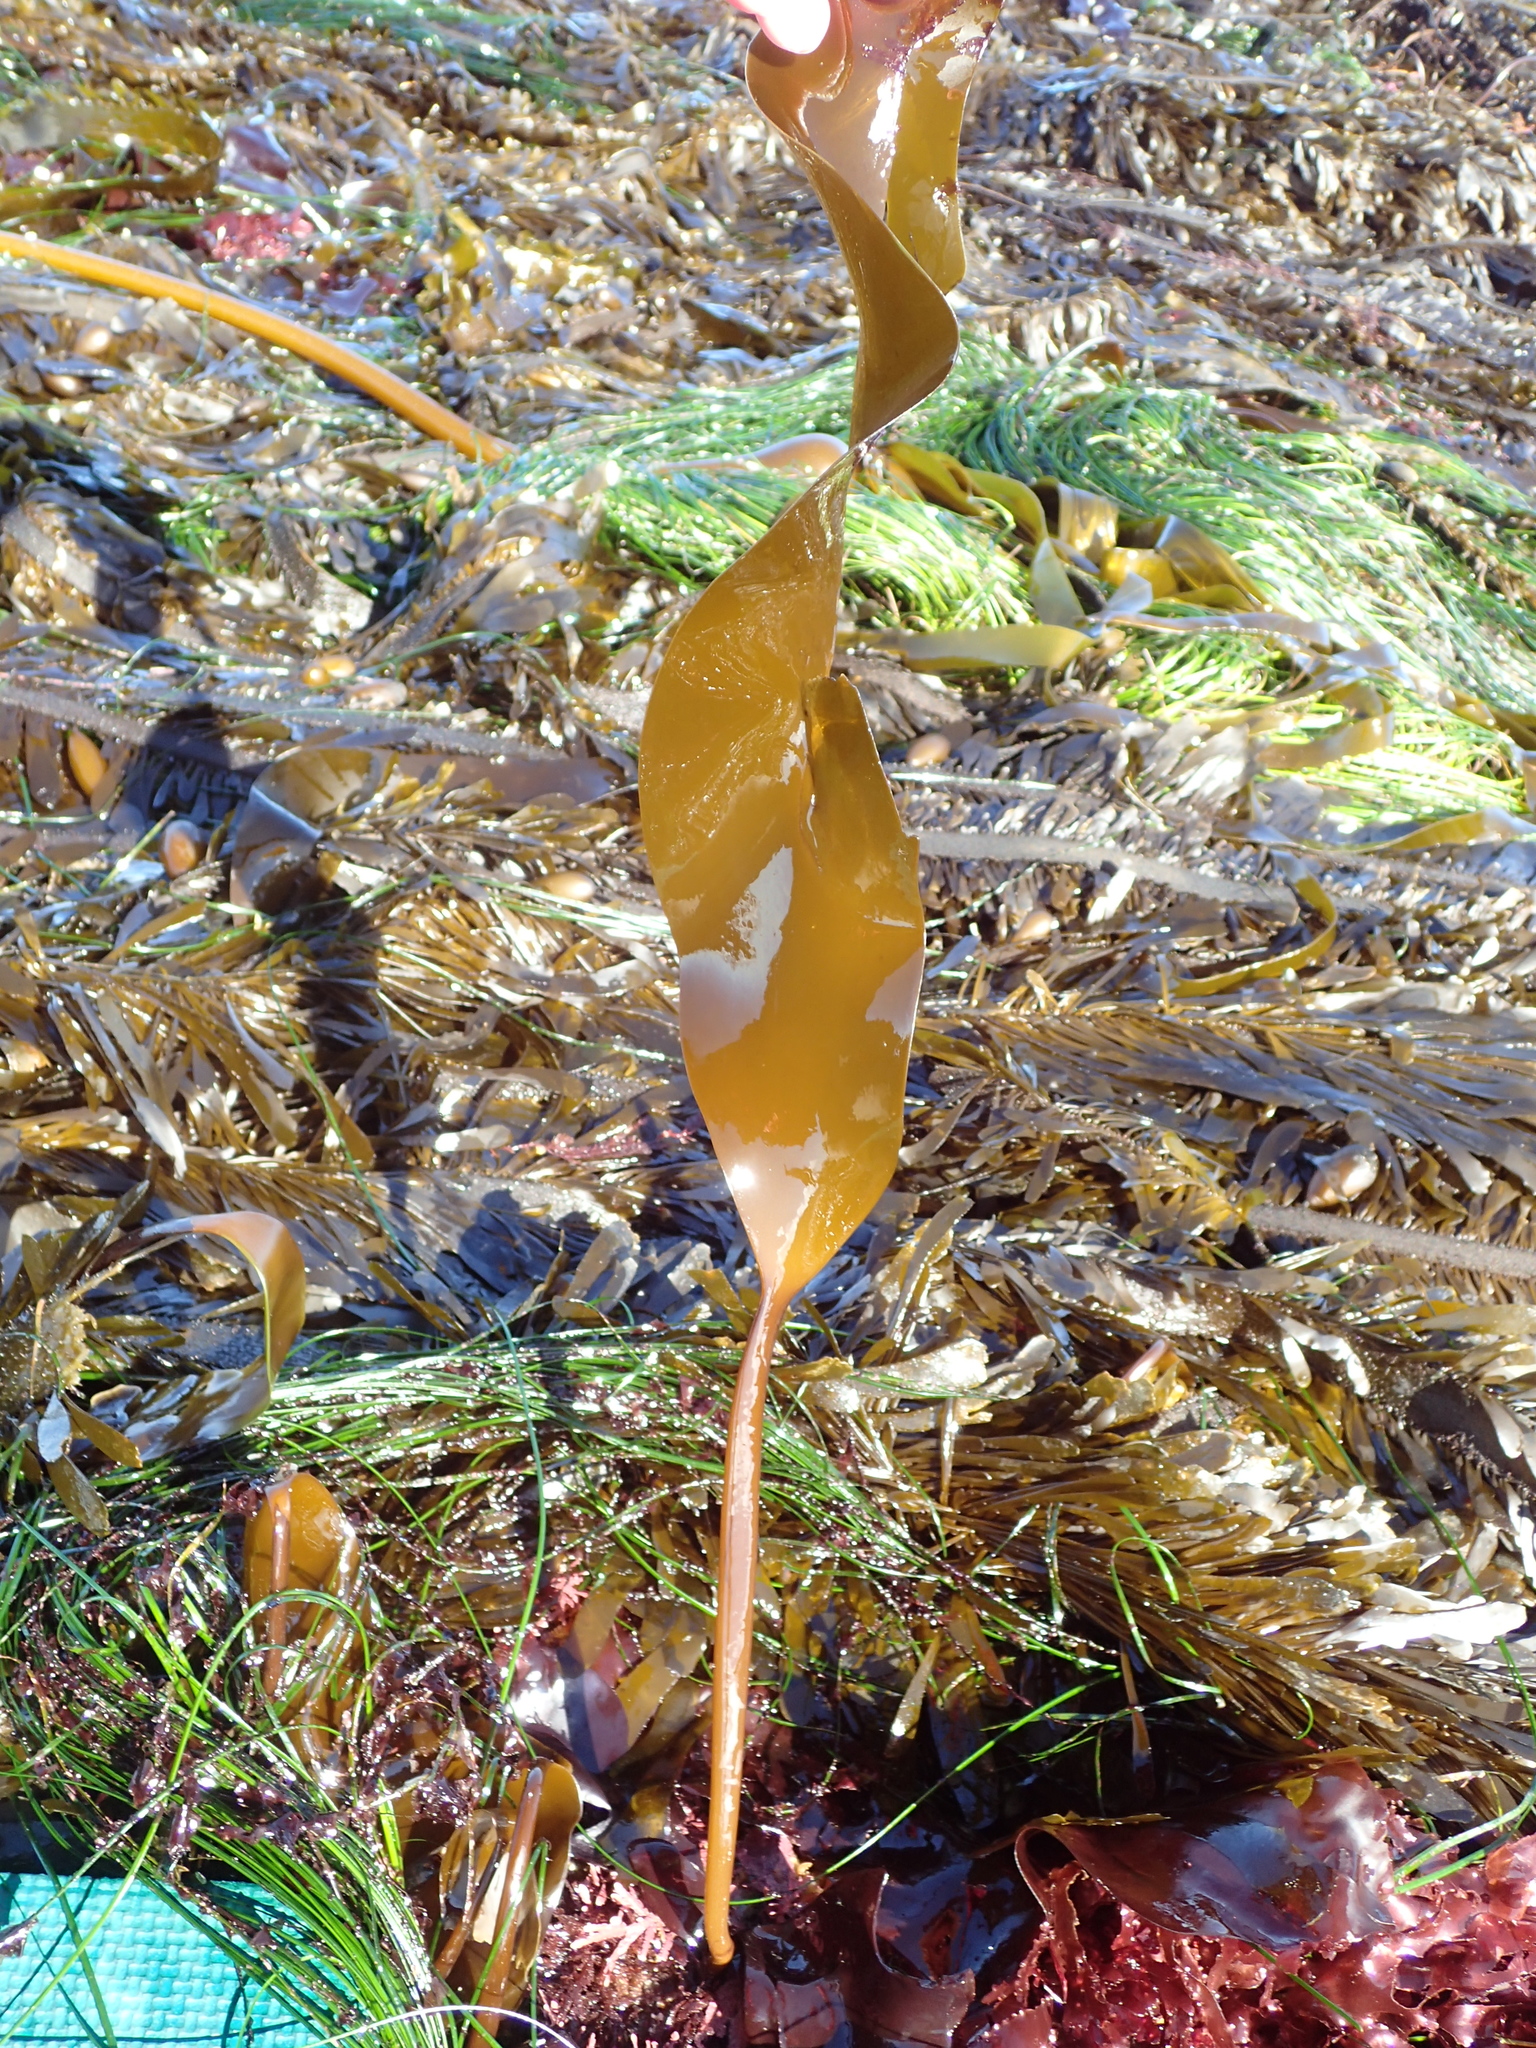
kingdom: Chromista
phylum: Ochrophyta
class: Phaeophyceae
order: Laminariales
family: Laminariaceae
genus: Laminaria
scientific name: Laminaria setchellii
